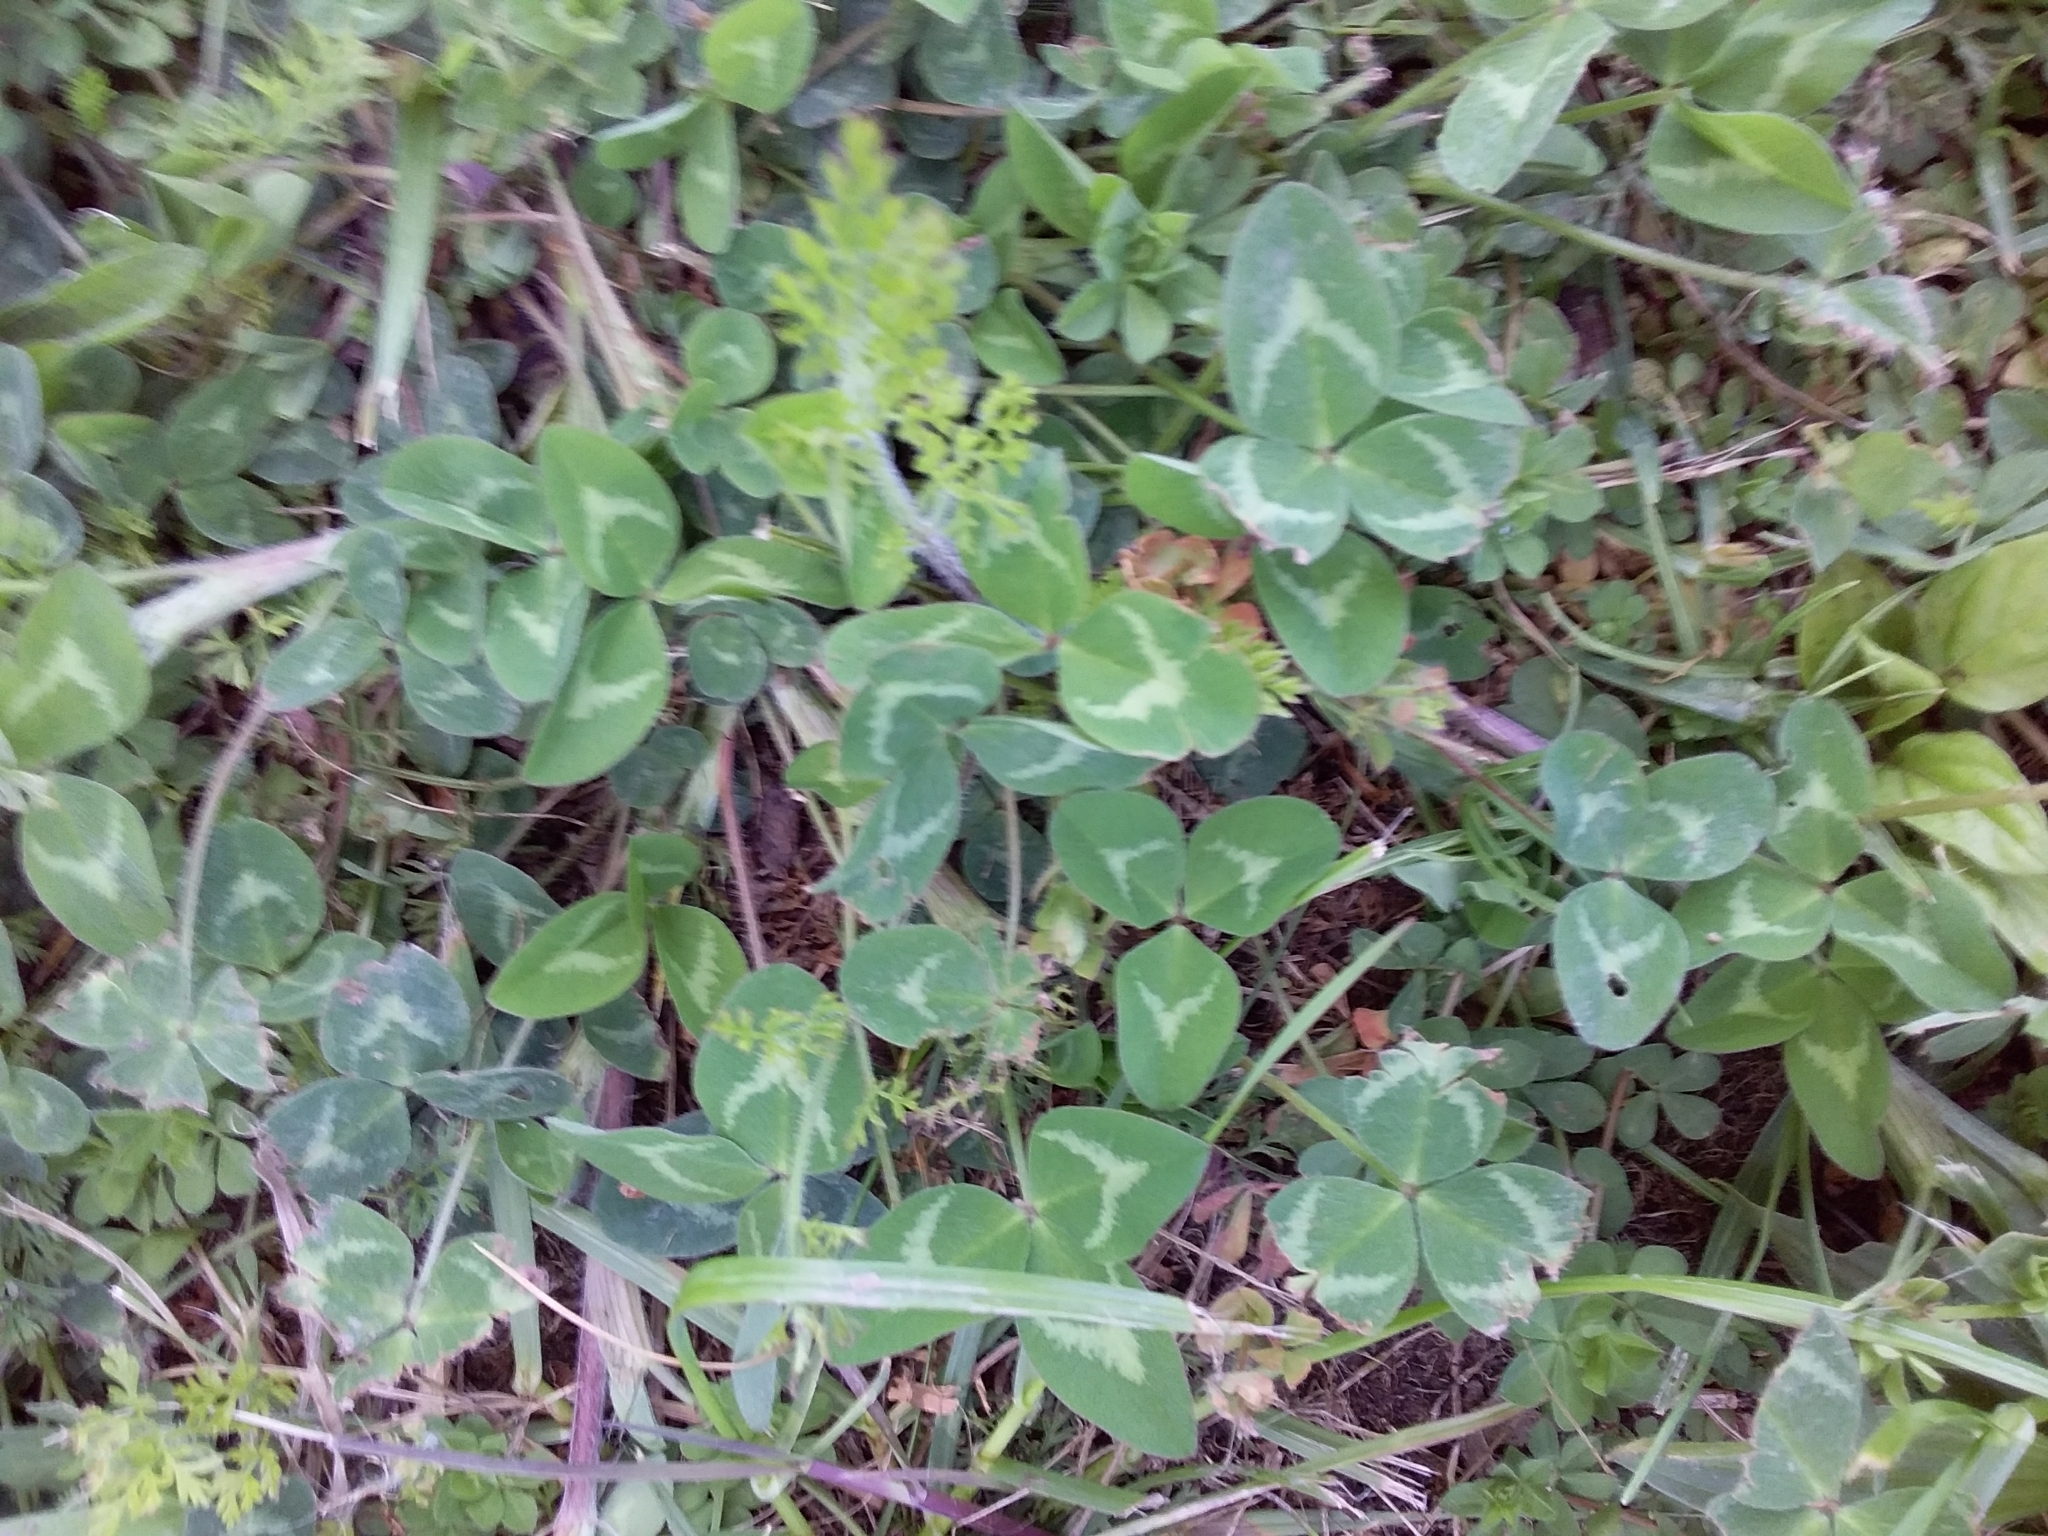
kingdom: Plantae
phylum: Tracheophyta
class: Magnoliopsida
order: Fabales
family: Fabaceae
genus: Trifolium
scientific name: Trifolium repens
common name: White clover
